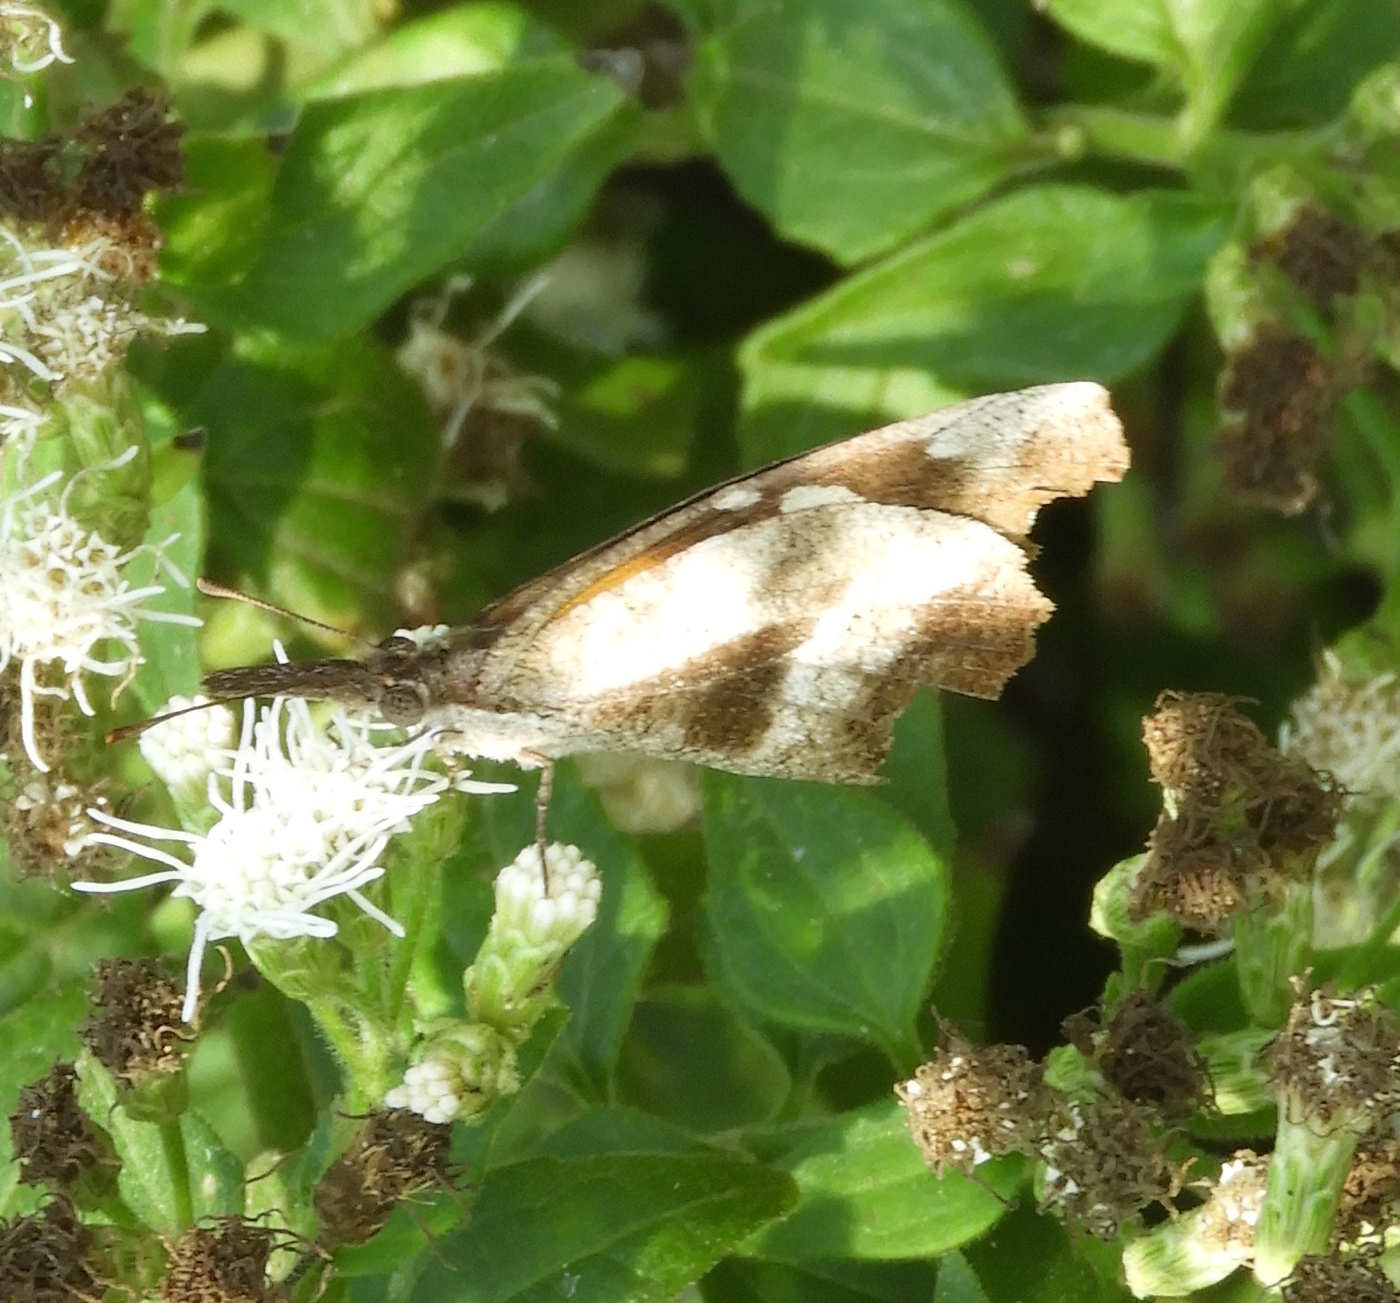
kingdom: Animalia
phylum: Arthropoda
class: Insecta
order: Lepidoptera
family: Nymphalidae
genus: Libytheana
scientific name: Libytheana carinenta
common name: American snout
